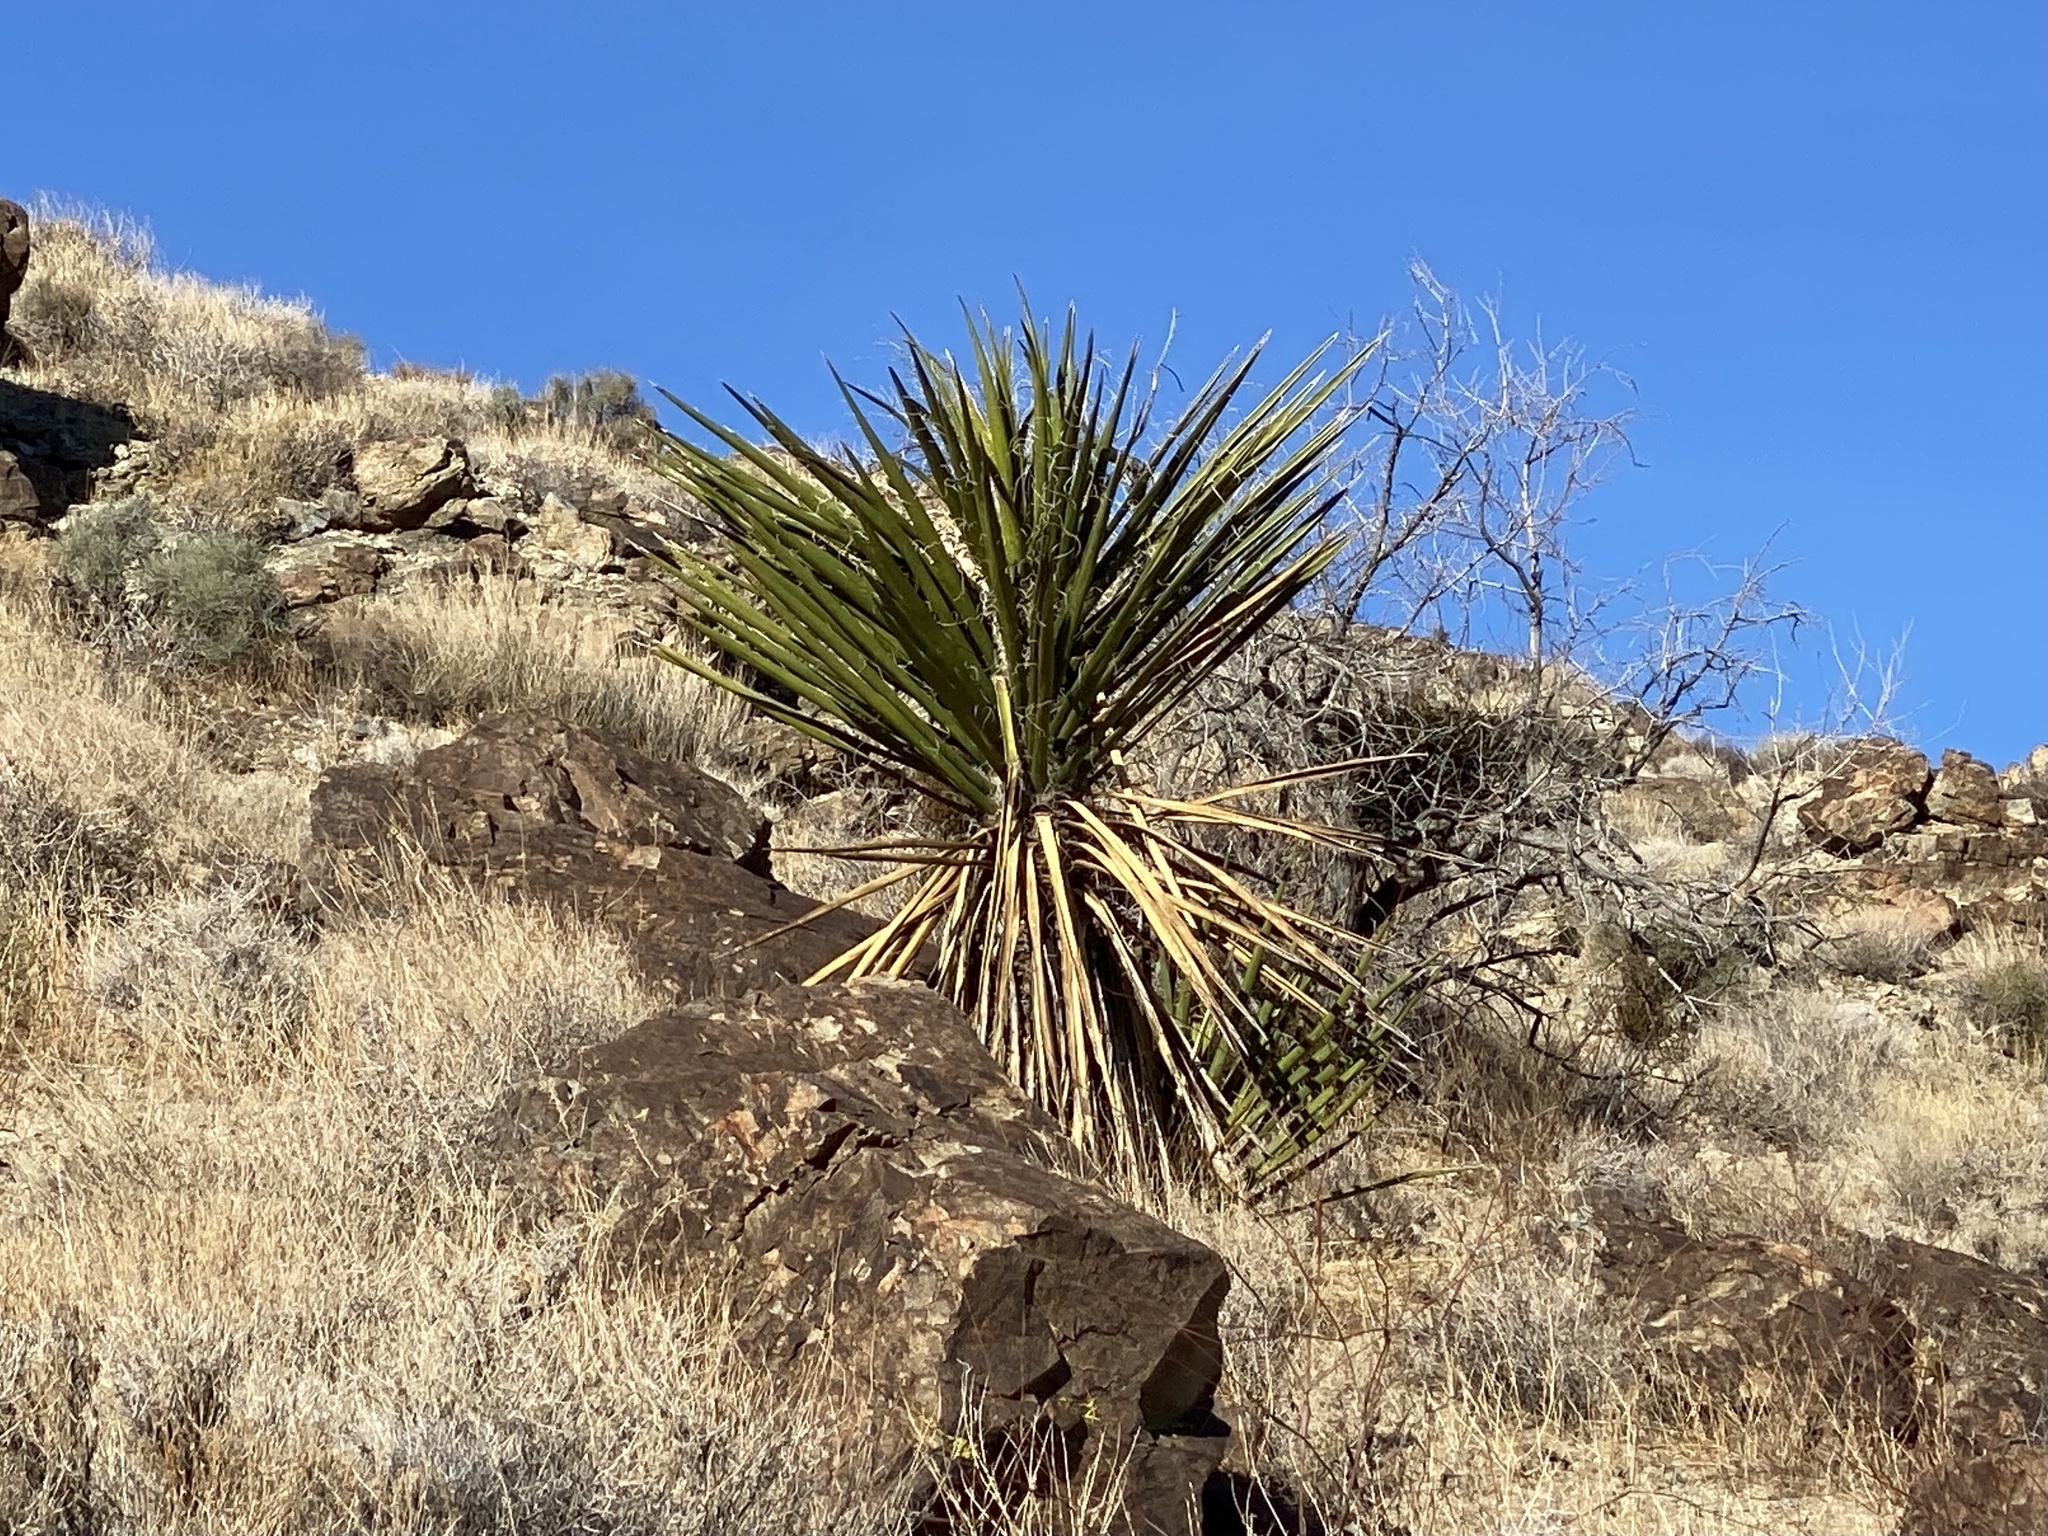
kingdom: Plantae
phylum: Tracheophyta
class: Liliopsida
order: Asparagales
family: Asparagaceae
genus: Yucca
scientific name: Yucca schidigera
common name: Mojave yucca
